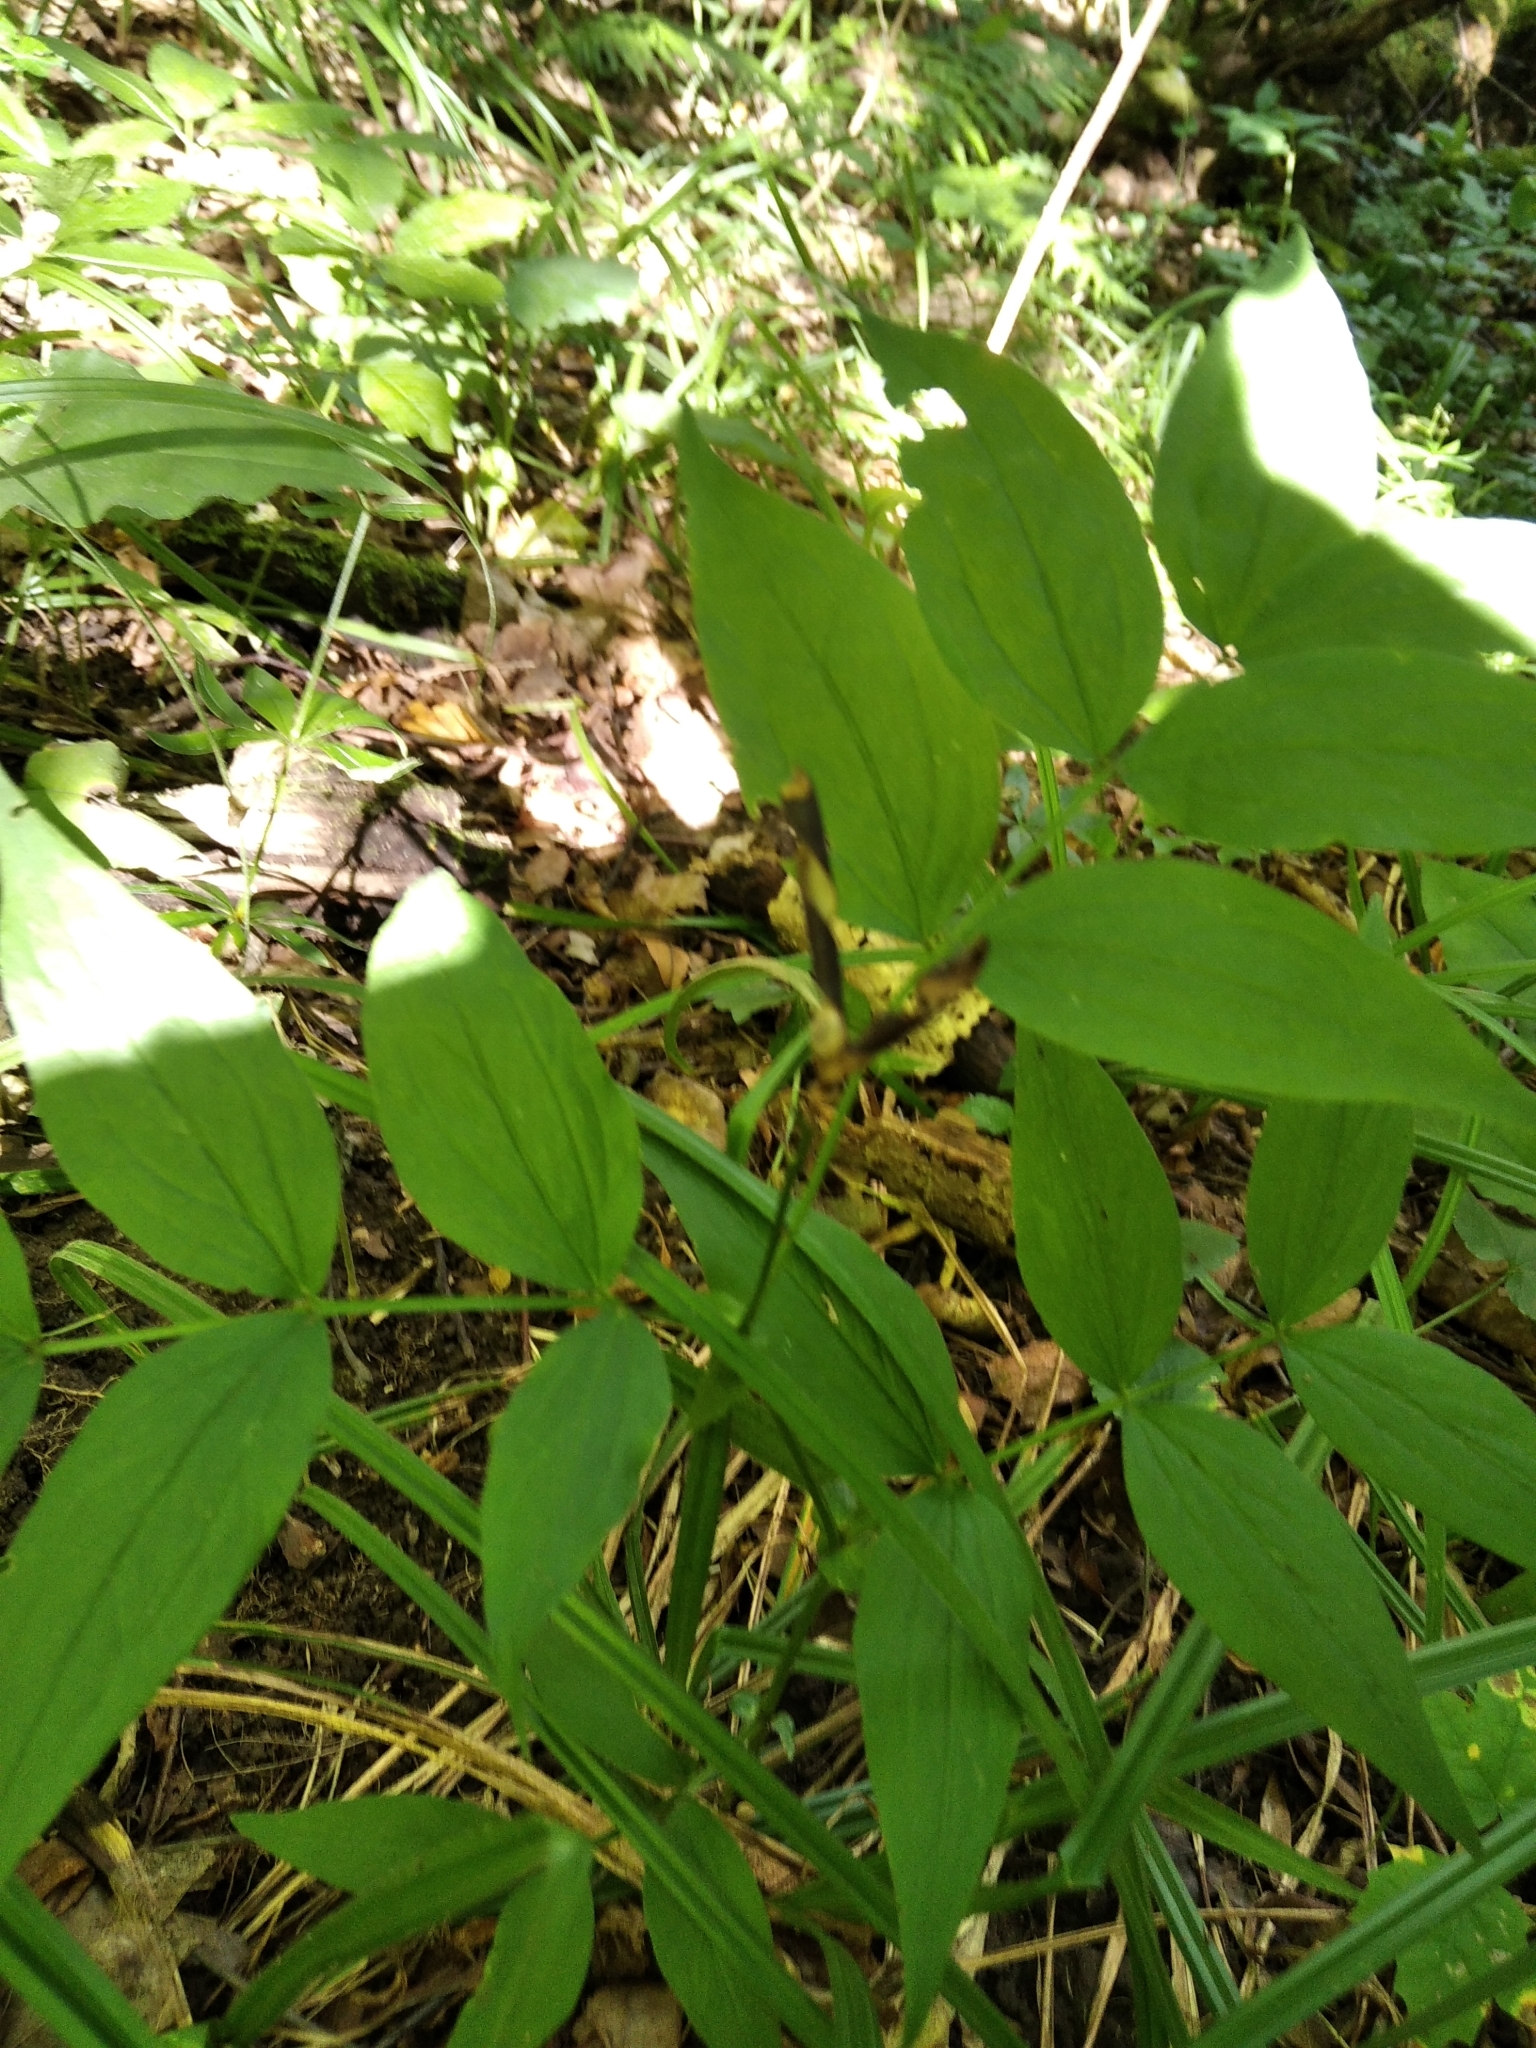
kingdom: Plantae
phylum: Tracheophyta
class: Magnoliopsida
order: Fabales
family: Fabaceae
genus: Lathyrus
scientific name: Lathyrus vernus
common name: Spring pea
